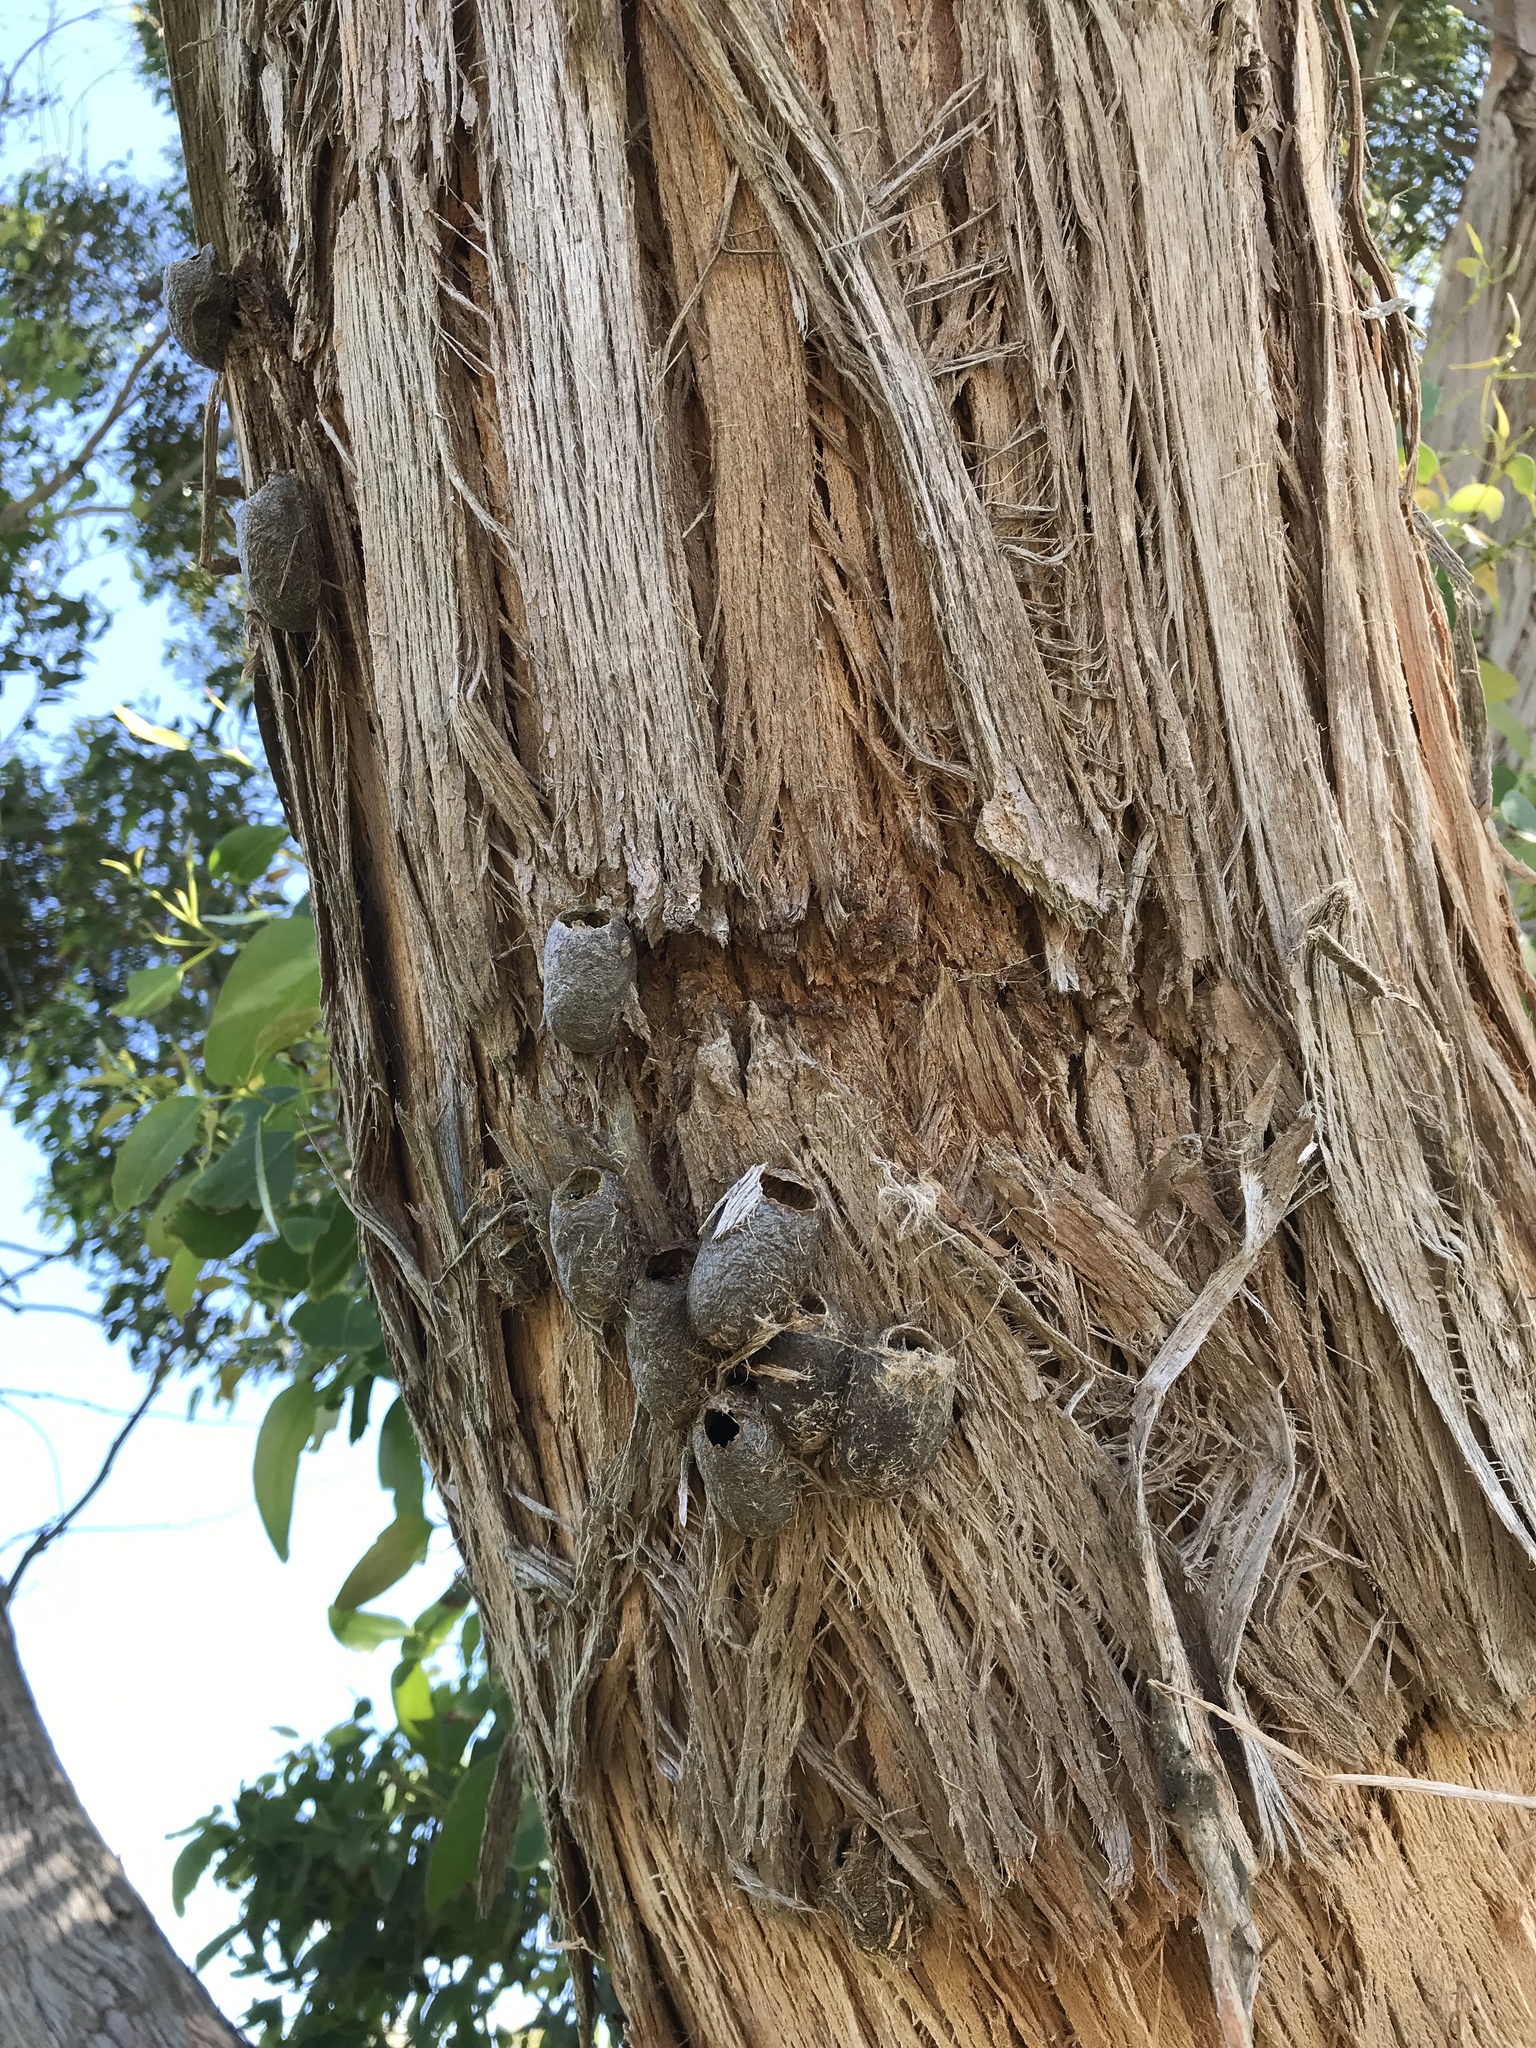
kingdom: Animalia
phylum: Arthropoda
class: Insecta
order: Lepidoptera
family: Saturniidae
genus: Opodiphthera
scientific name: Opodiphthera
